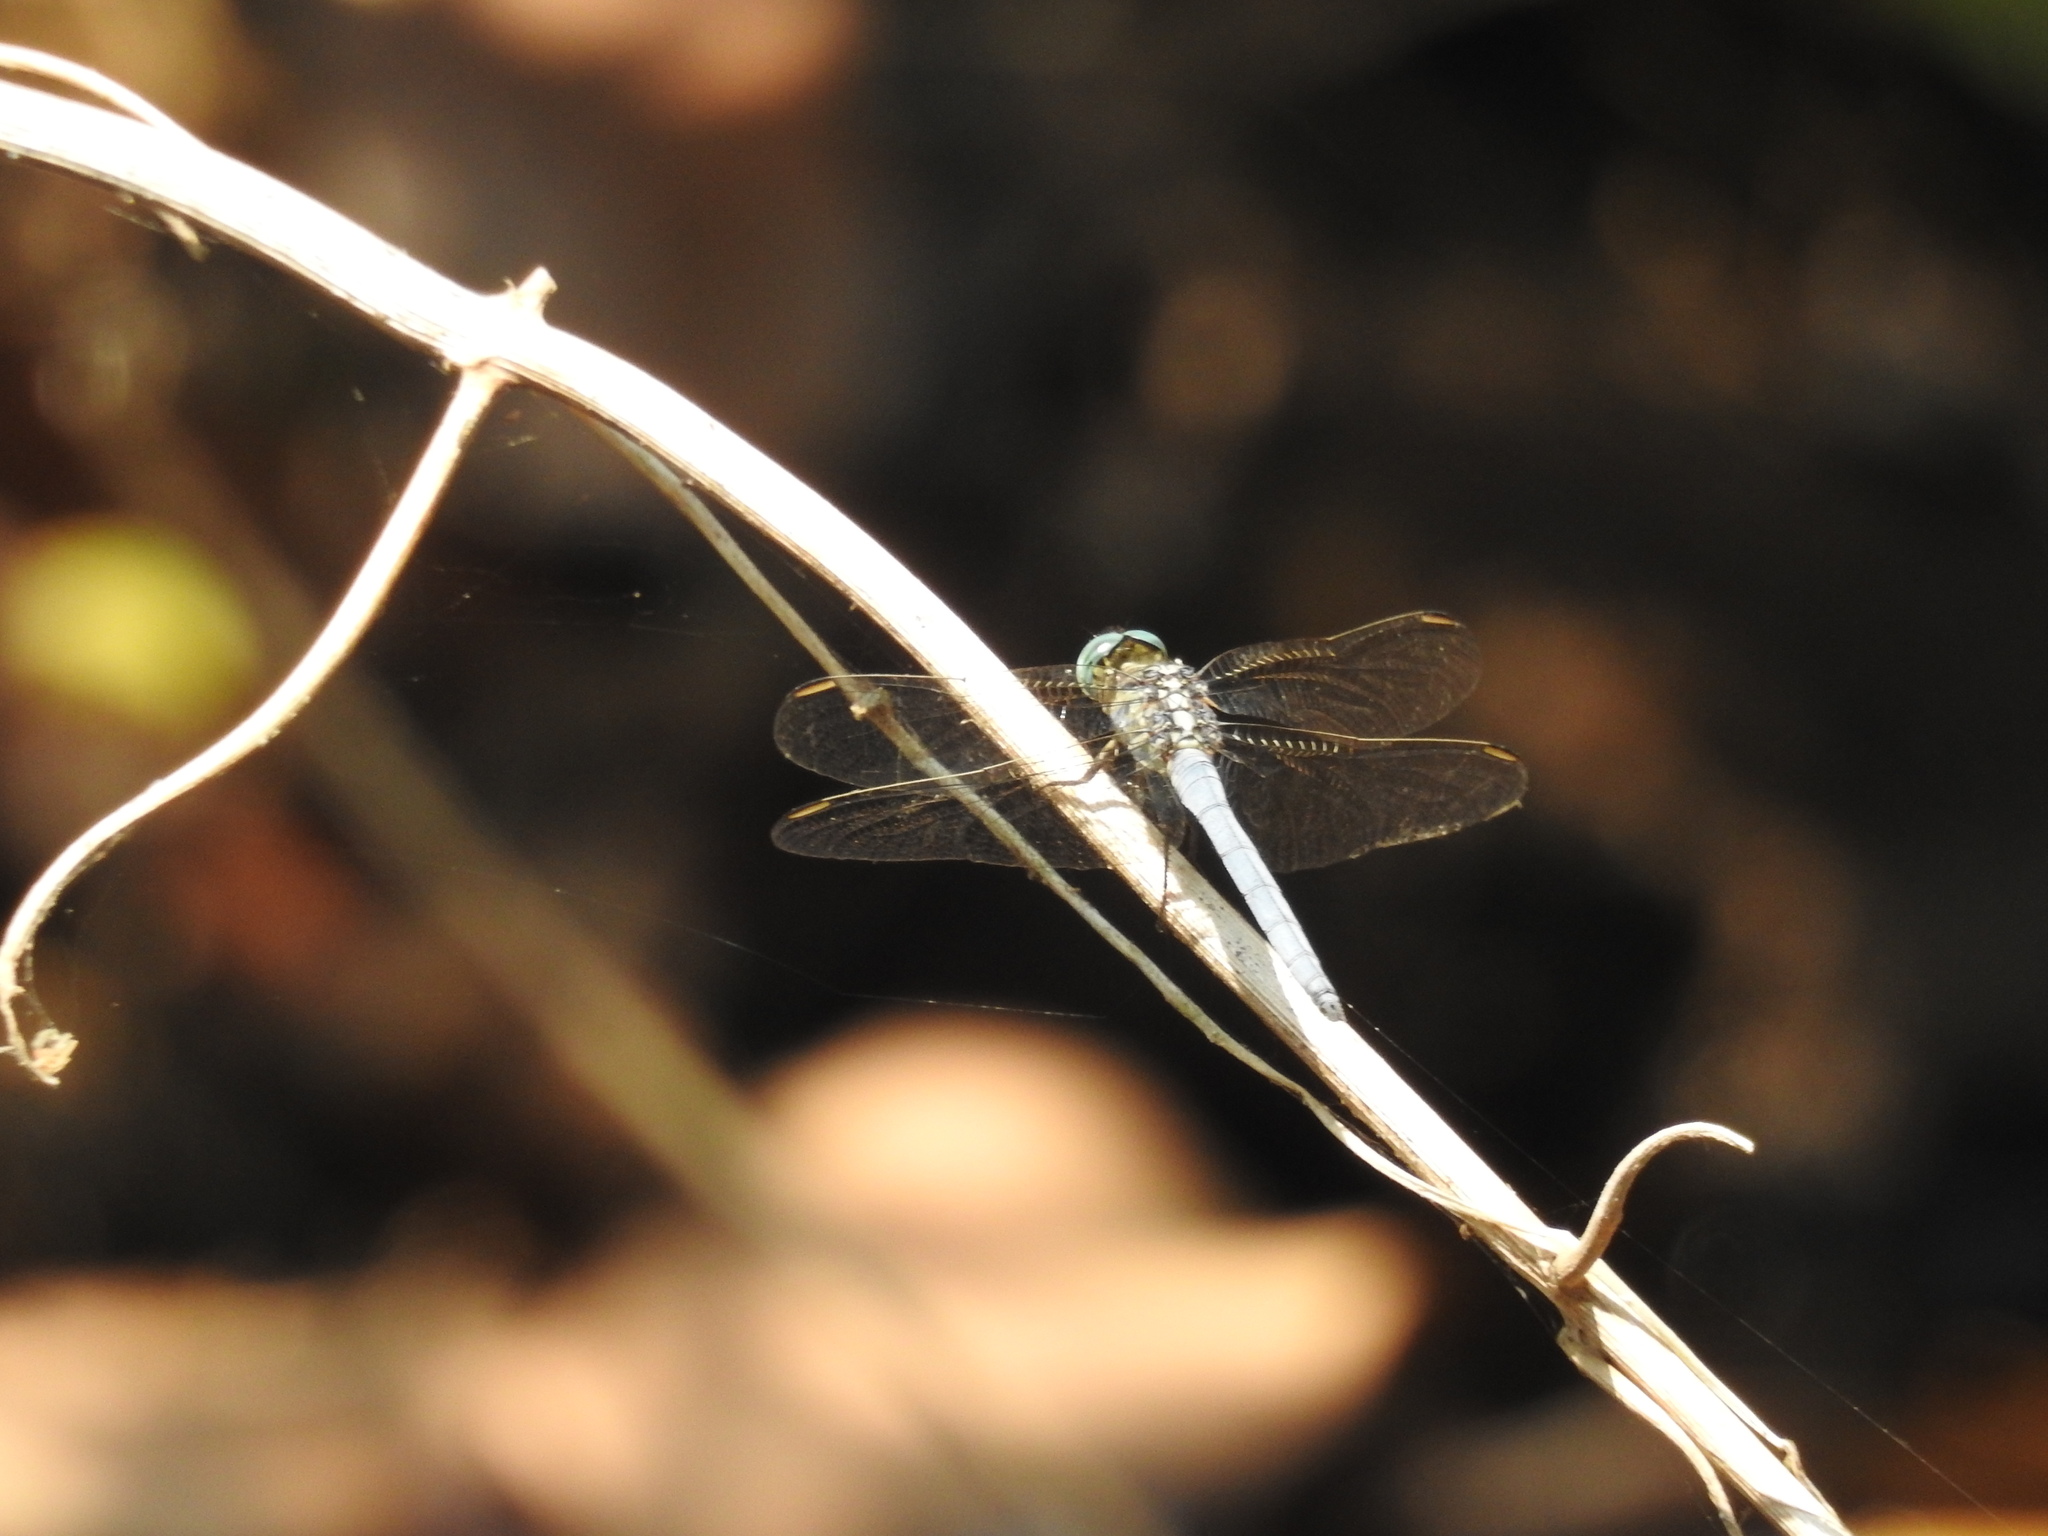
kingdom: Animalia
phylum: Arthropoda
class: Insecta
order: Odonata
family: Libellulidae
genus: Orthetrum
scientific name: Orthetrum luzonicum
